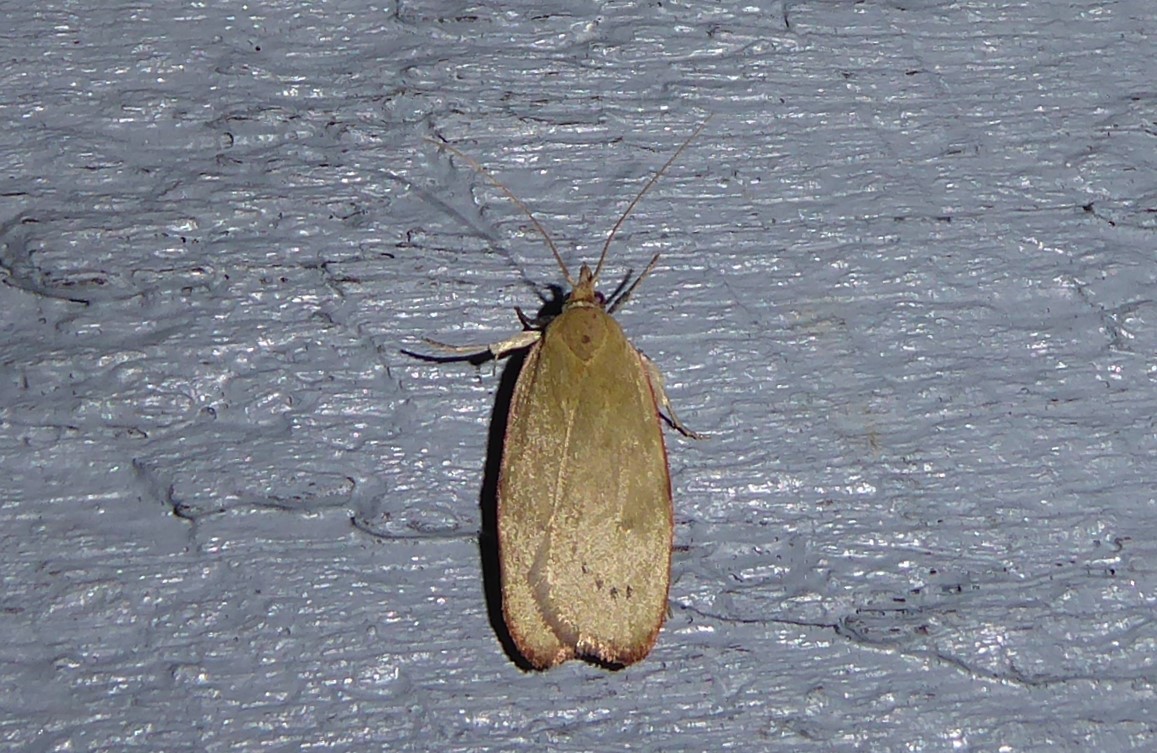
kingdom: Animalia
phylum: Arthropoda
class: Insecta
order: Lepidoptera
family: Depressariidae
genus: Phaeosaces
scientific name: Phaeosaces coarctatella
